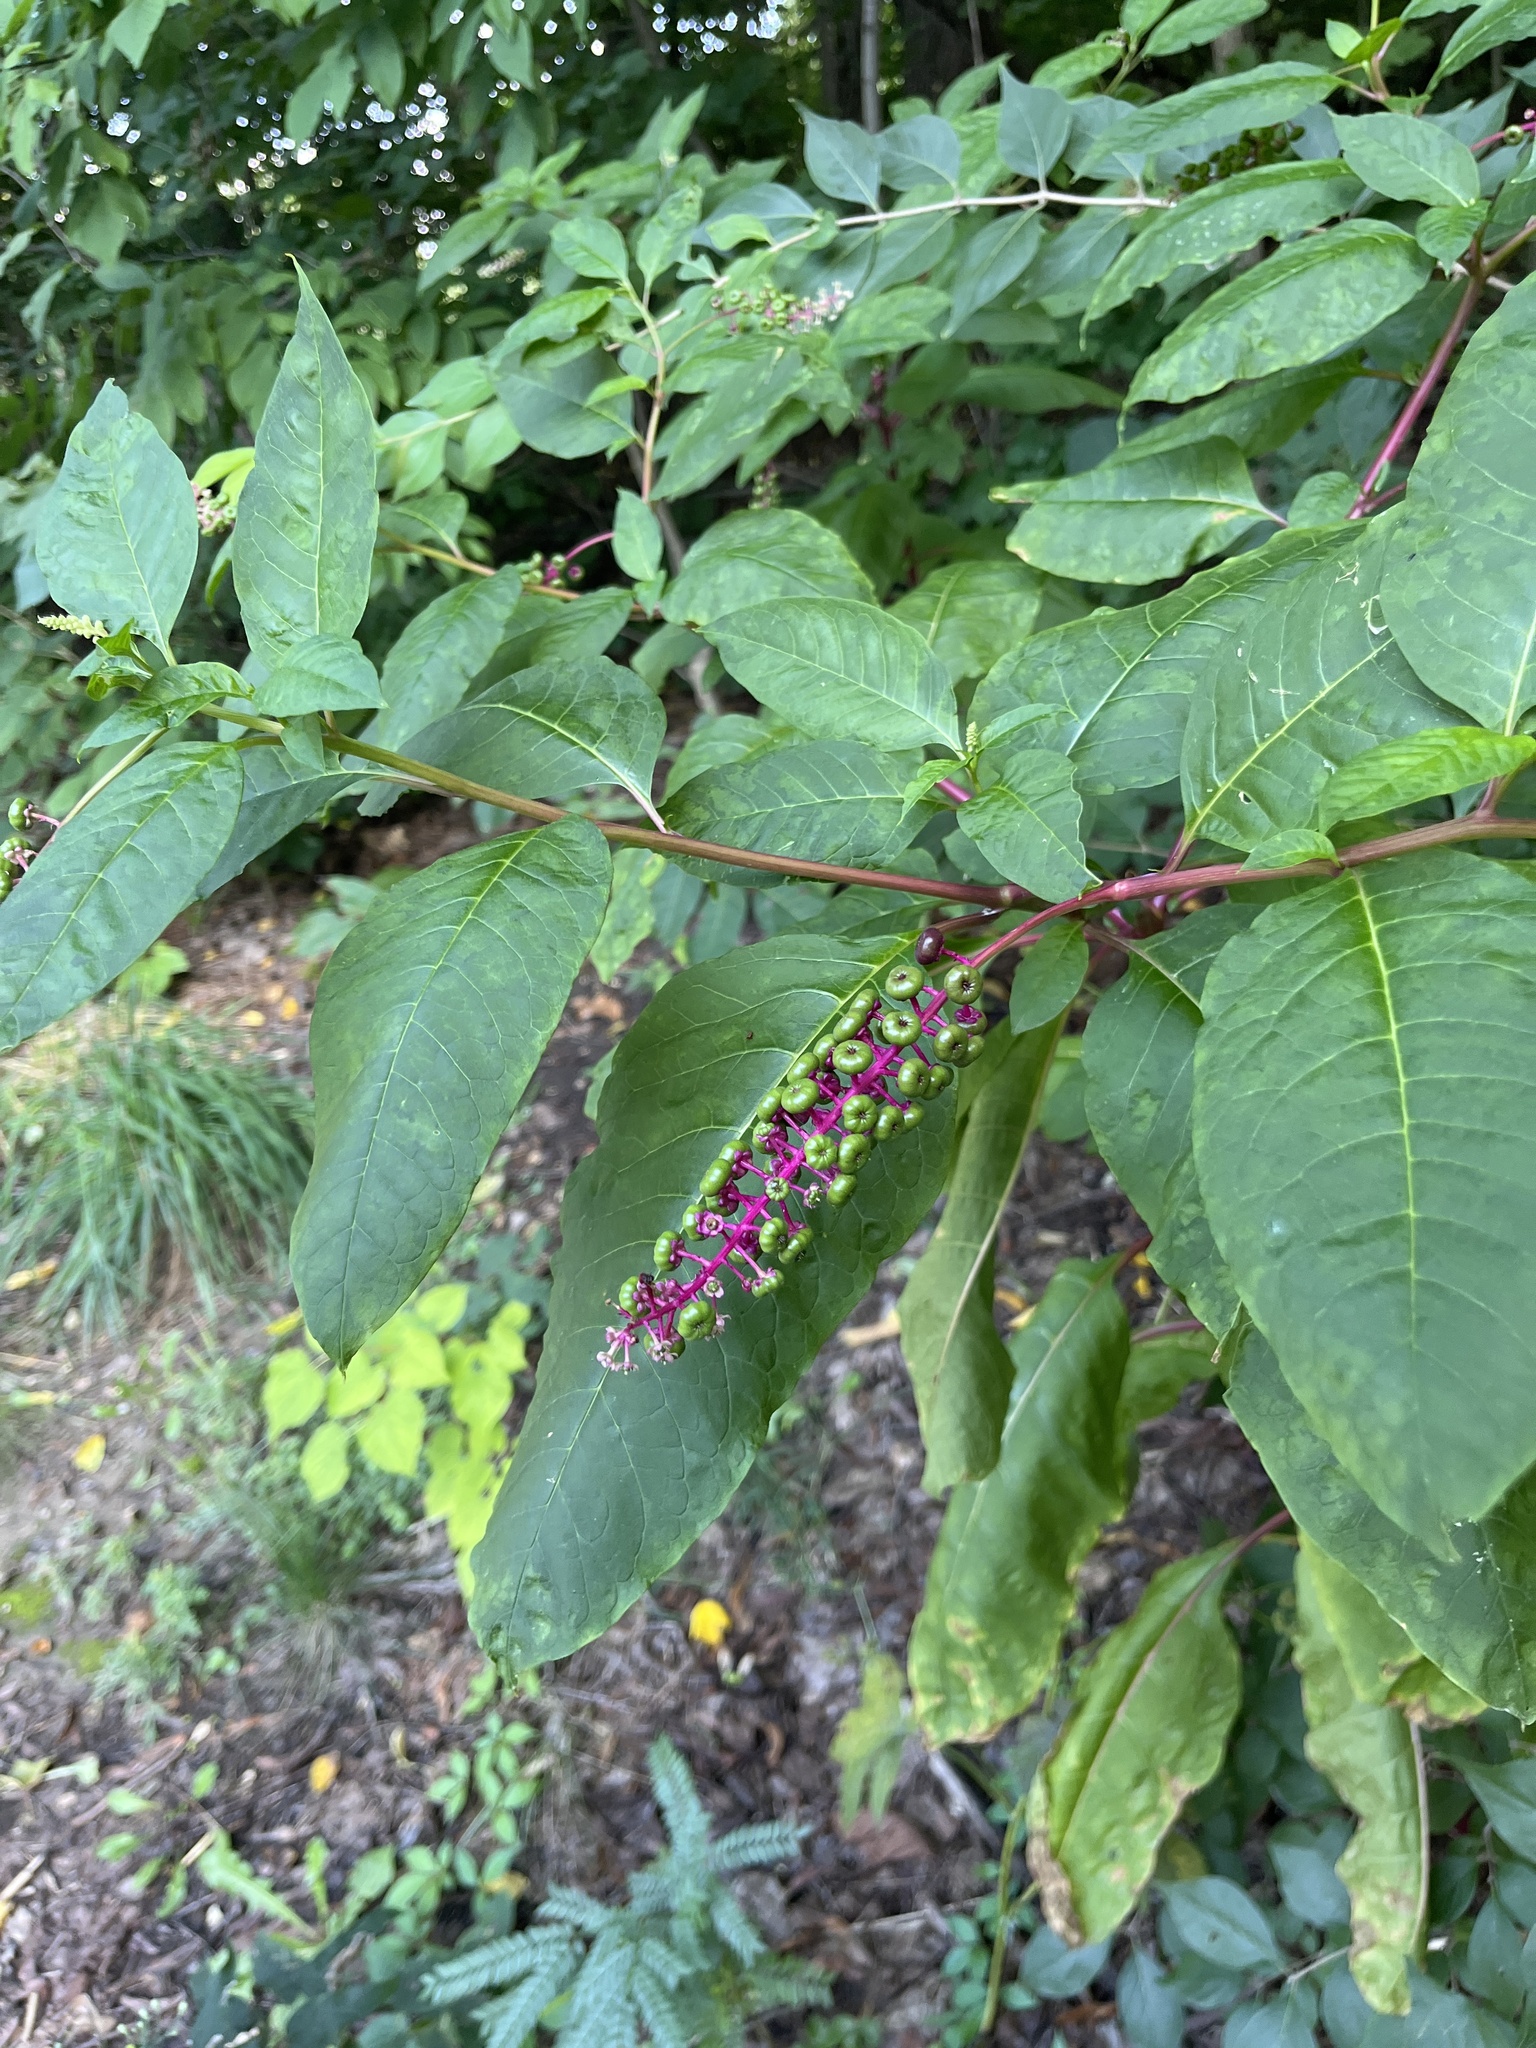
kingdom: Plantae
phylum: Tracheophyta
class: Magnoliopsida
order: Caryophyllales
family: Phytolaccaceae
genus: Phytolacca
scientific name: Phytolacca americana
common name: American pokeweed
